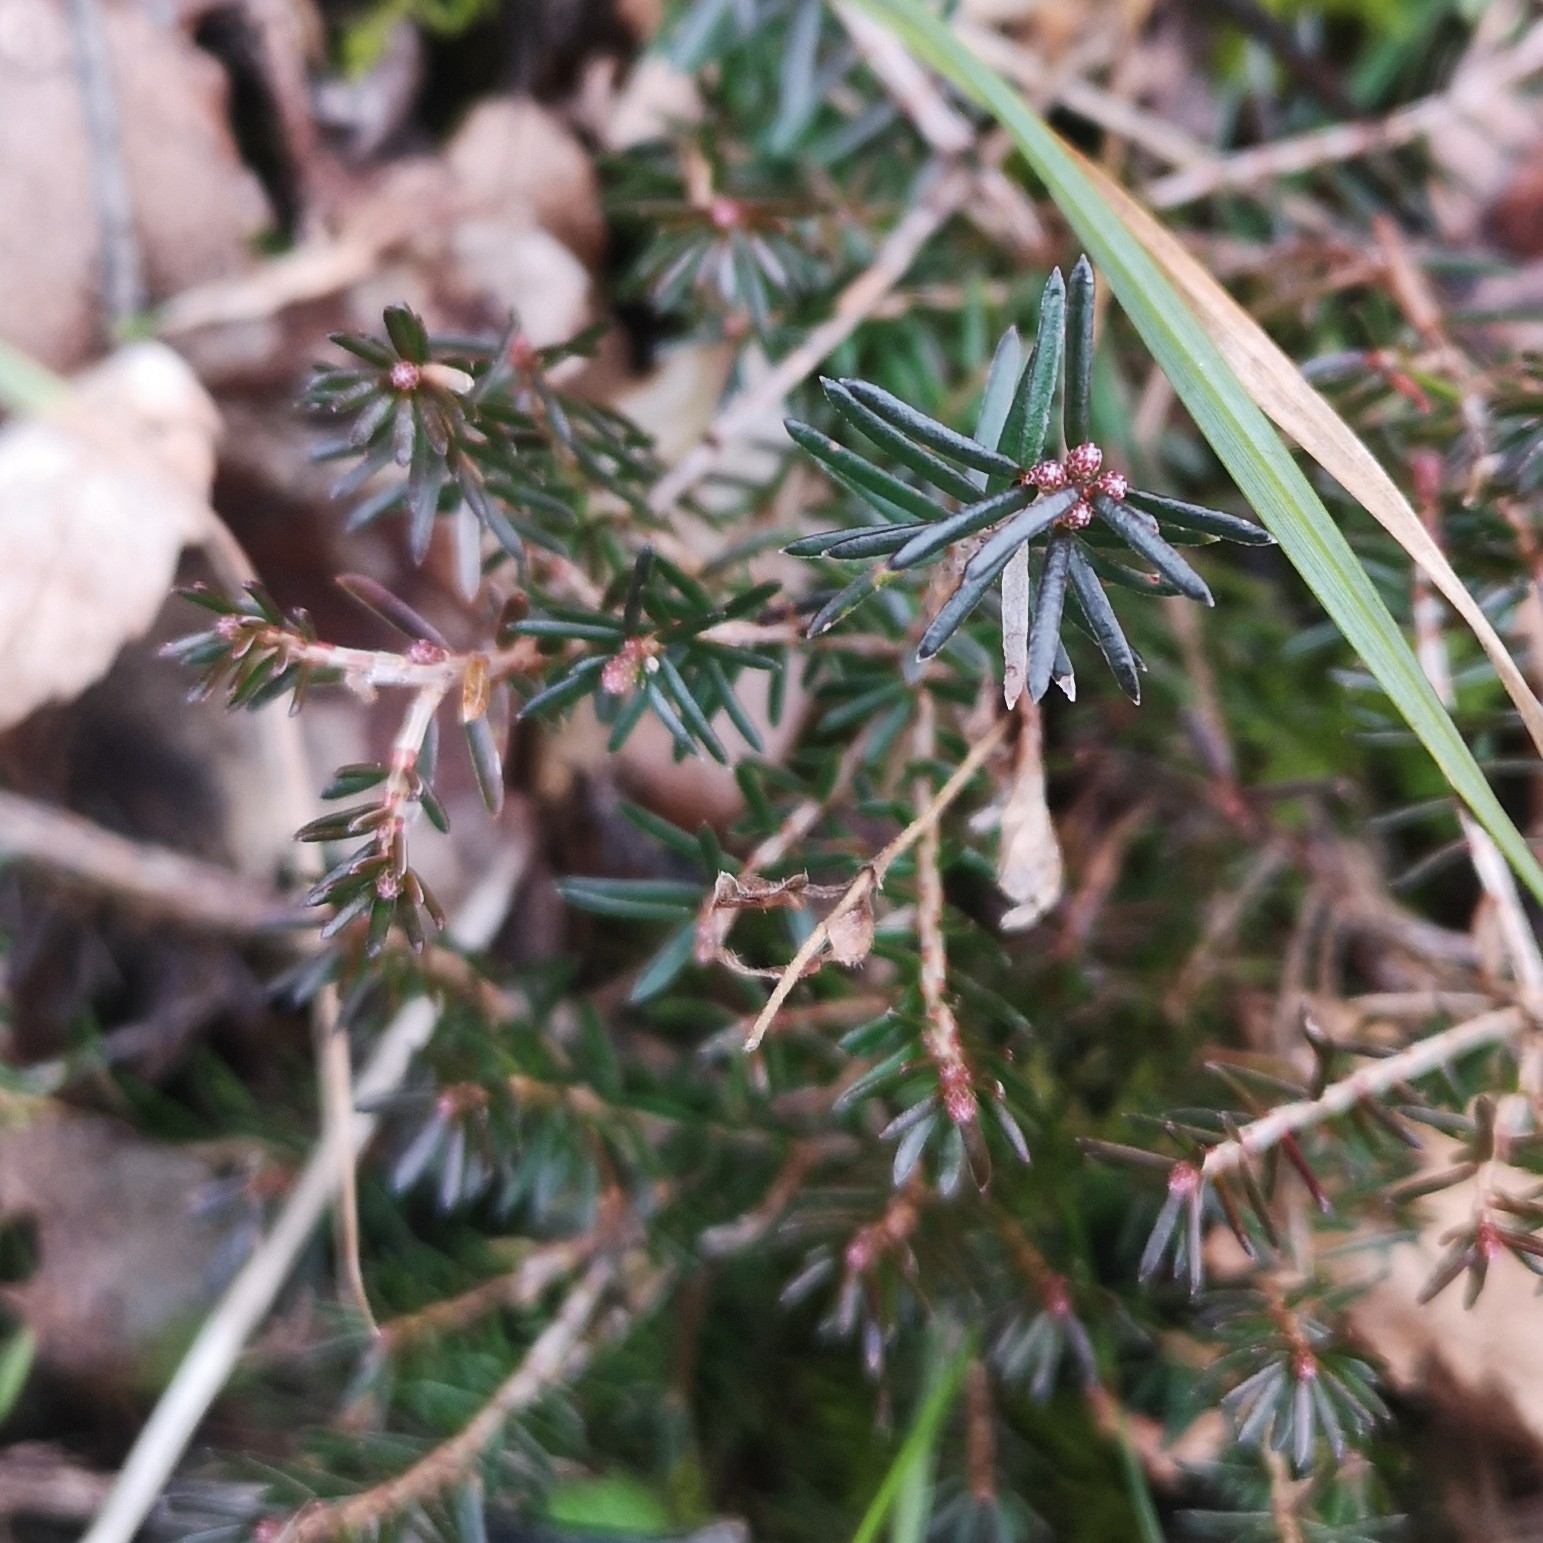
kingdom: Plantae
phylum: Tracheophyta
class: Magnoliopsida
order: Ericales
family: Ericaceae
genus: Erica
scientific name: Erica carnea
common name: Winter heath
